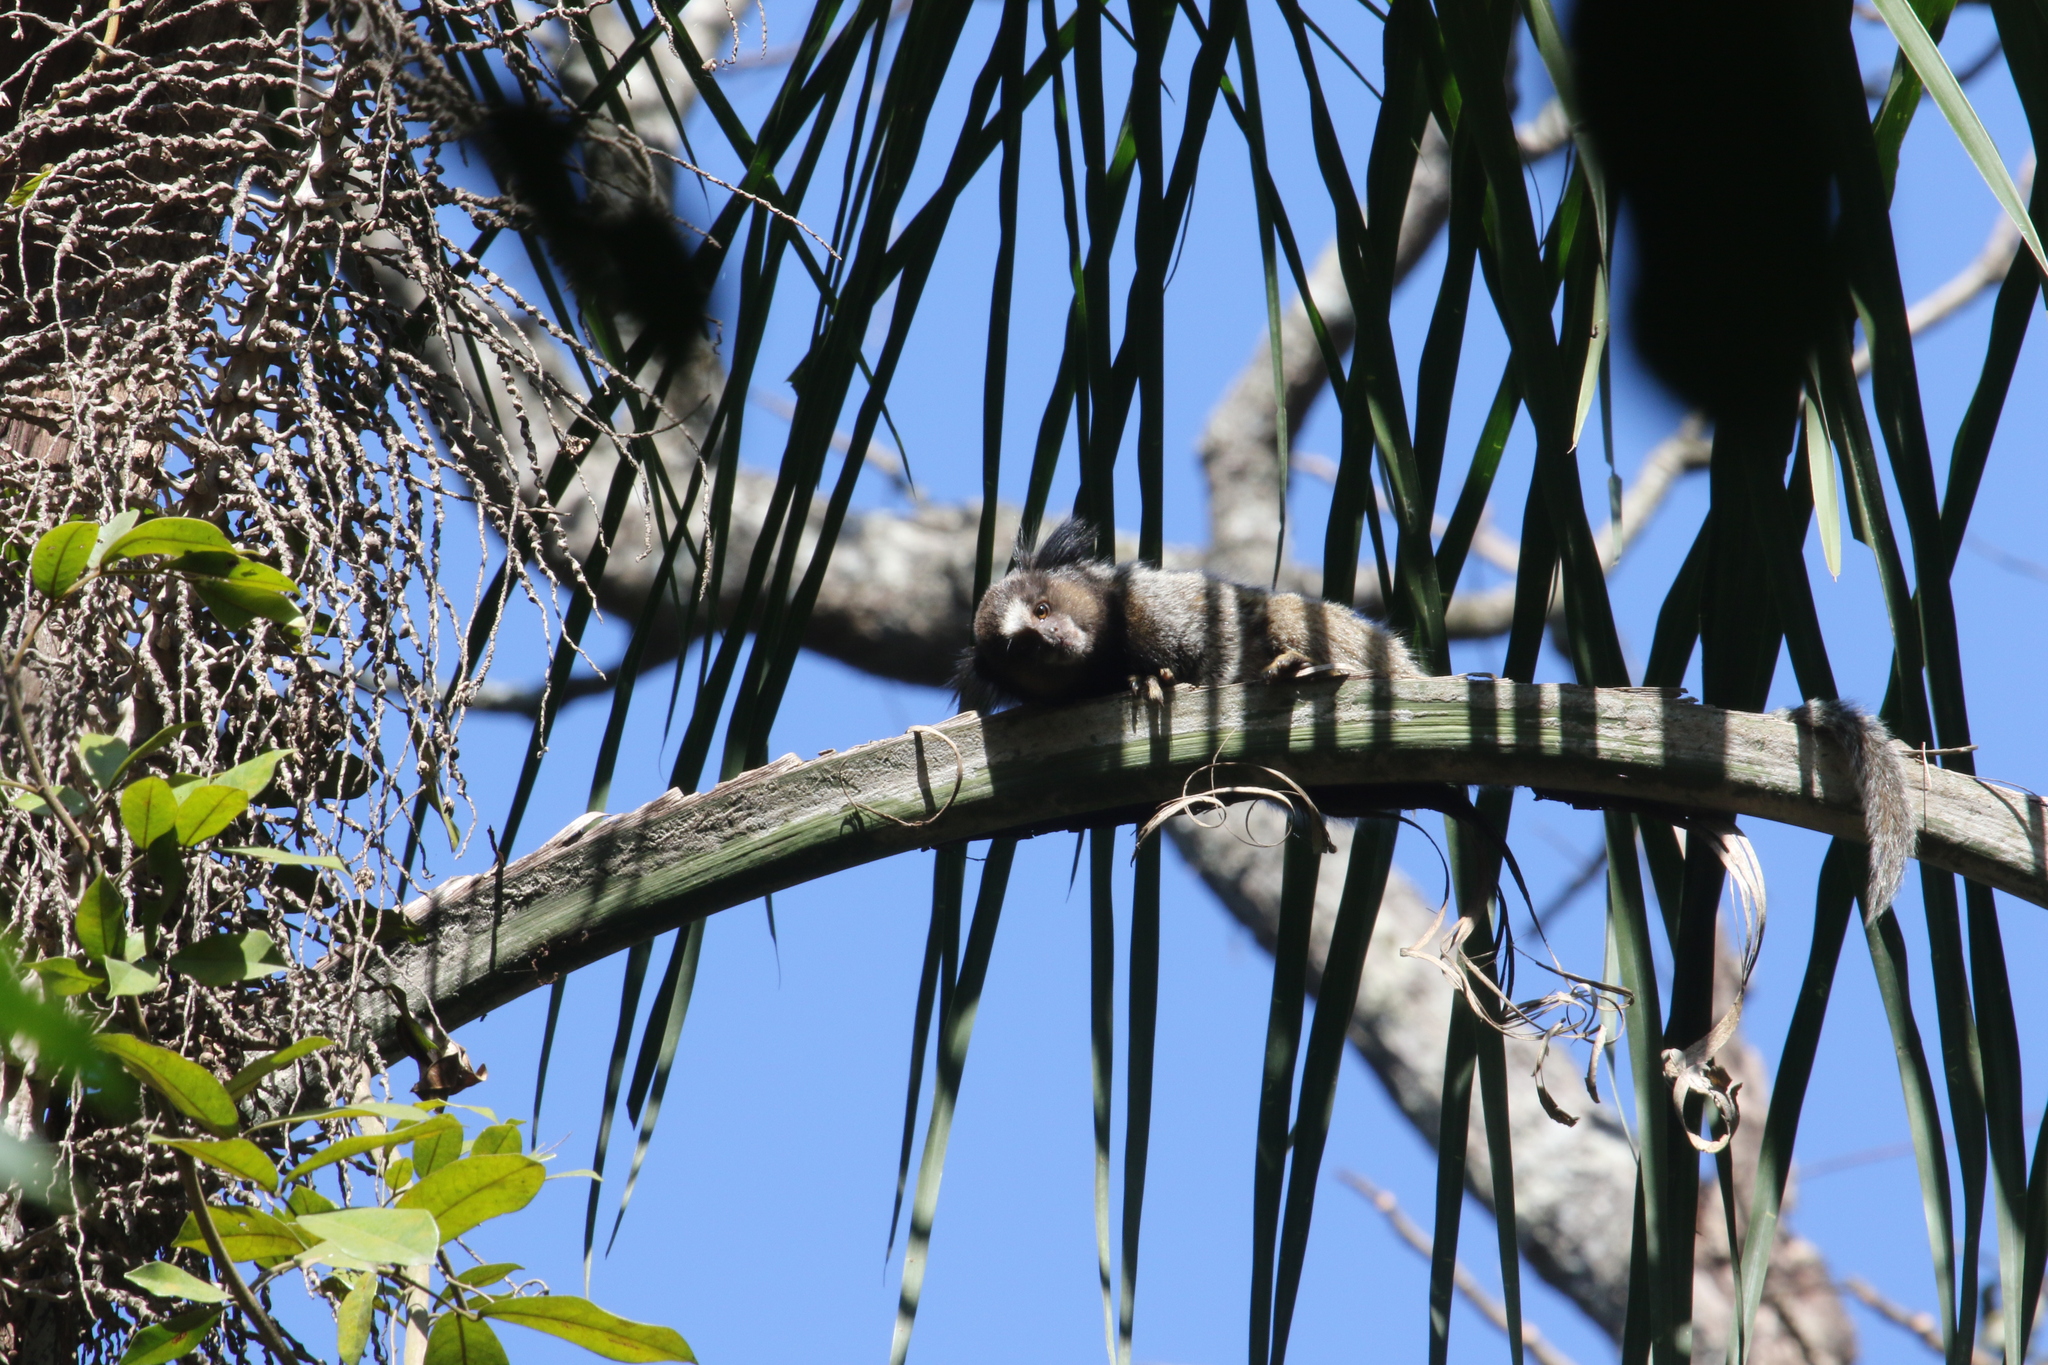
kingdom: Animalia
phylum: Chordata
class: Mammalia
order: Primates
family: Callitrichidae
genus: Callithrix
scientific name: Callithrix penicillata
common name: Black-tufted marmoset
